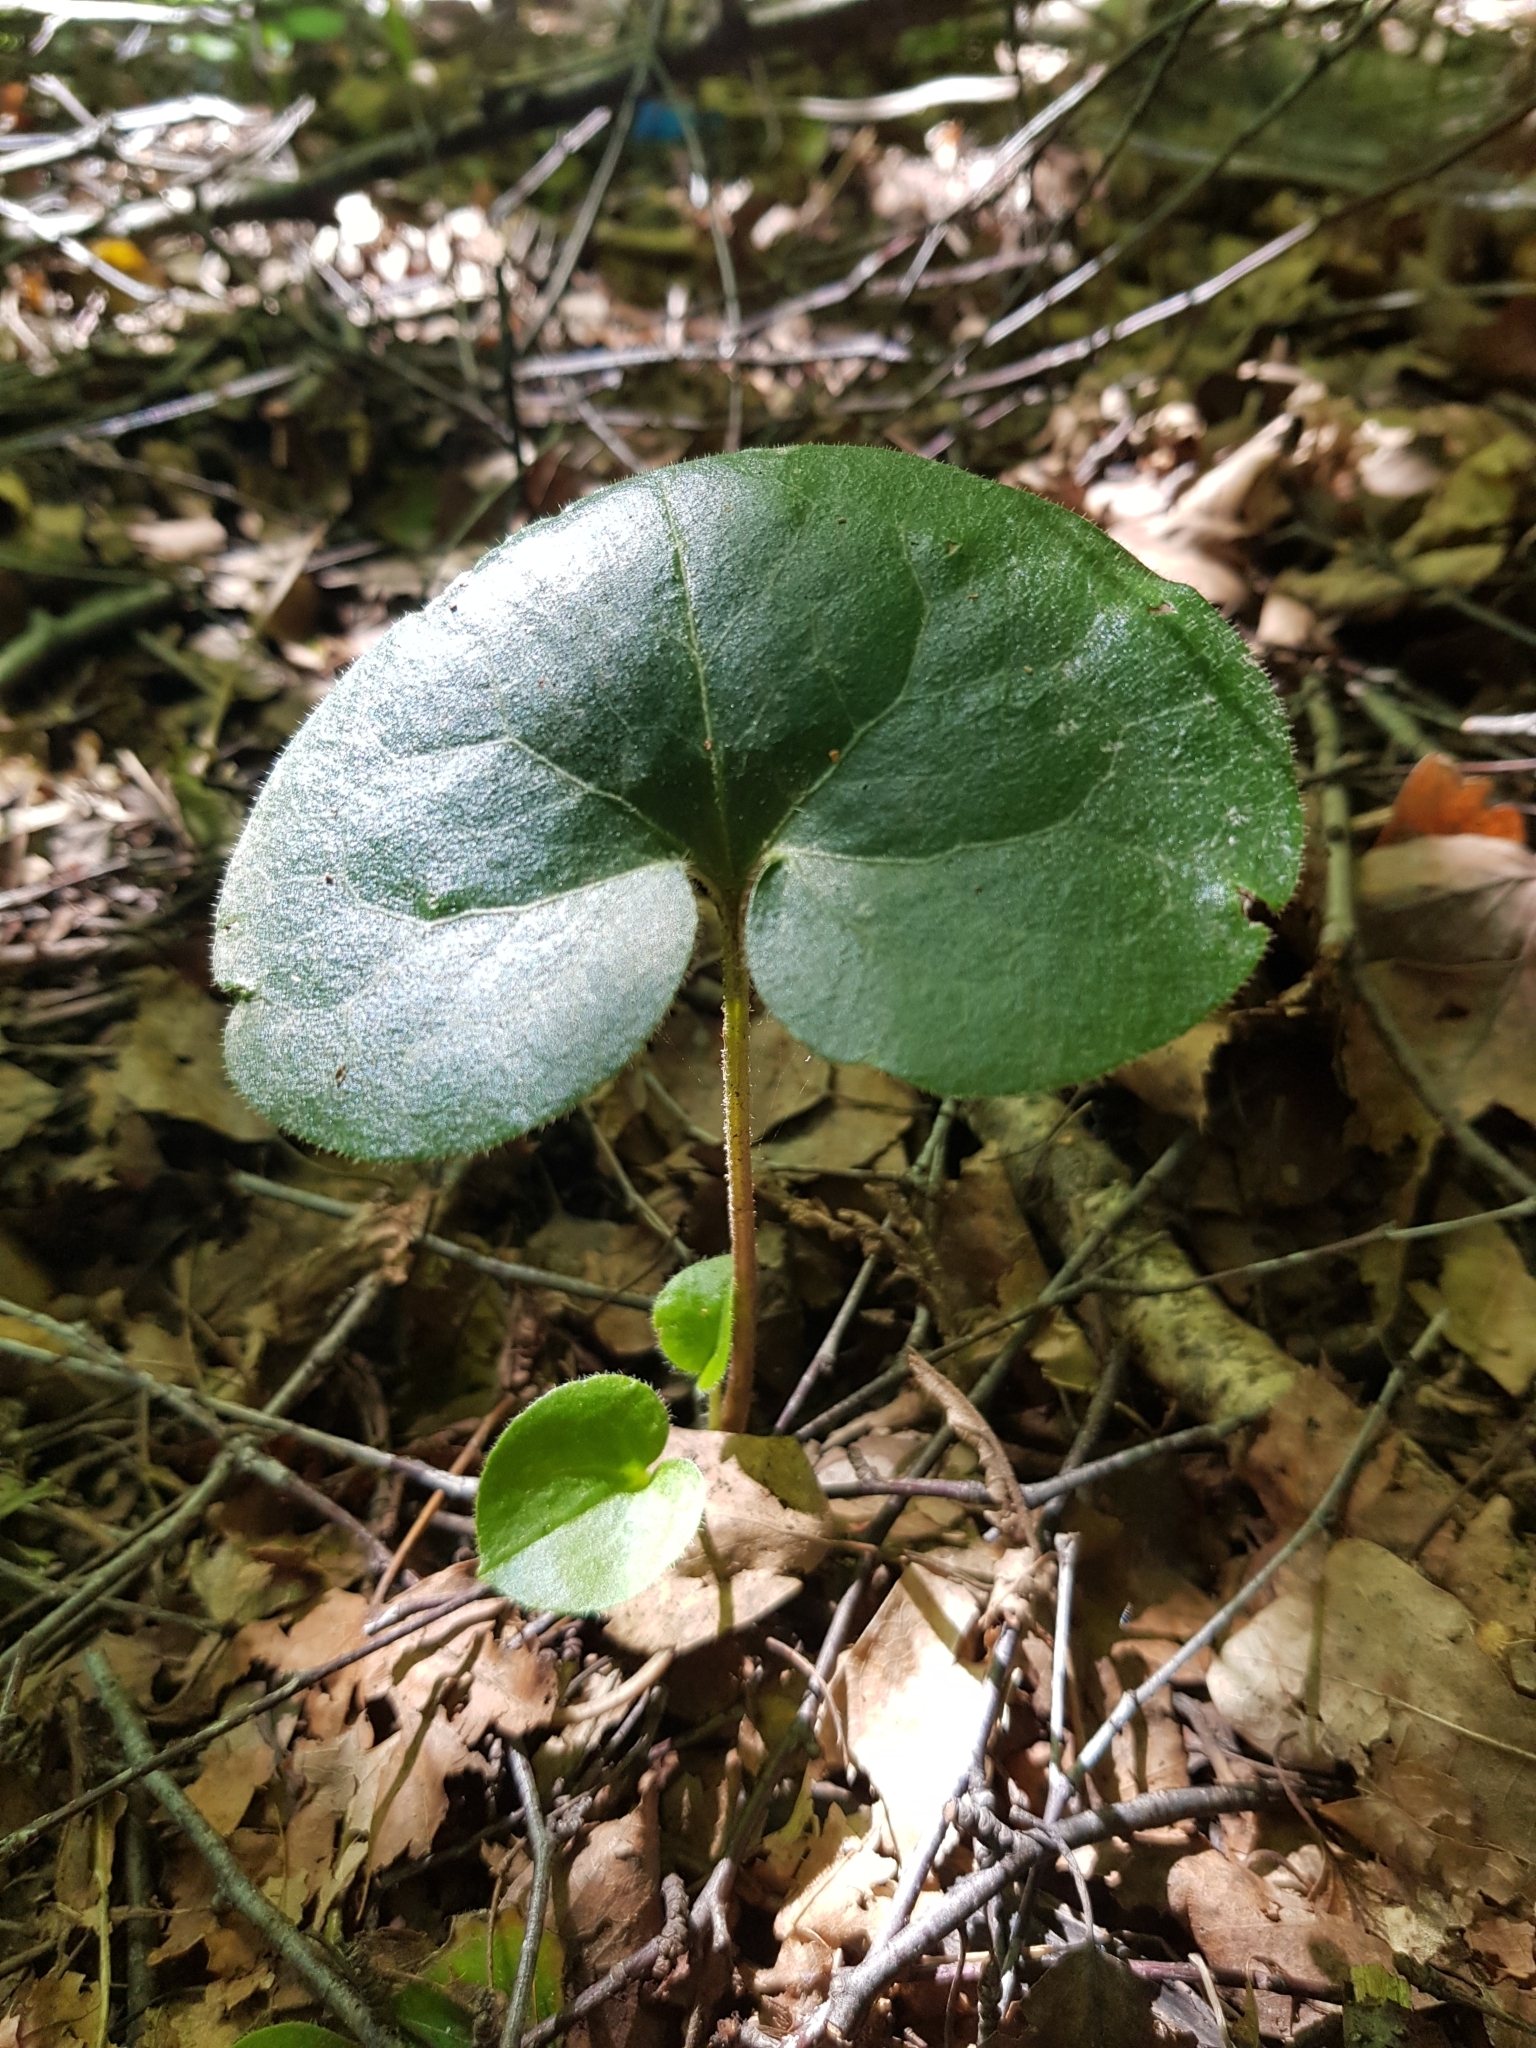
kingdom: Plantae
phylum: Tracheophyta
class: Magnoliopsida
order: Piperales
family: Aristolochiaceae
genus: Asarum
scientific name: Asarum europaeum
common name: Asarabacca
